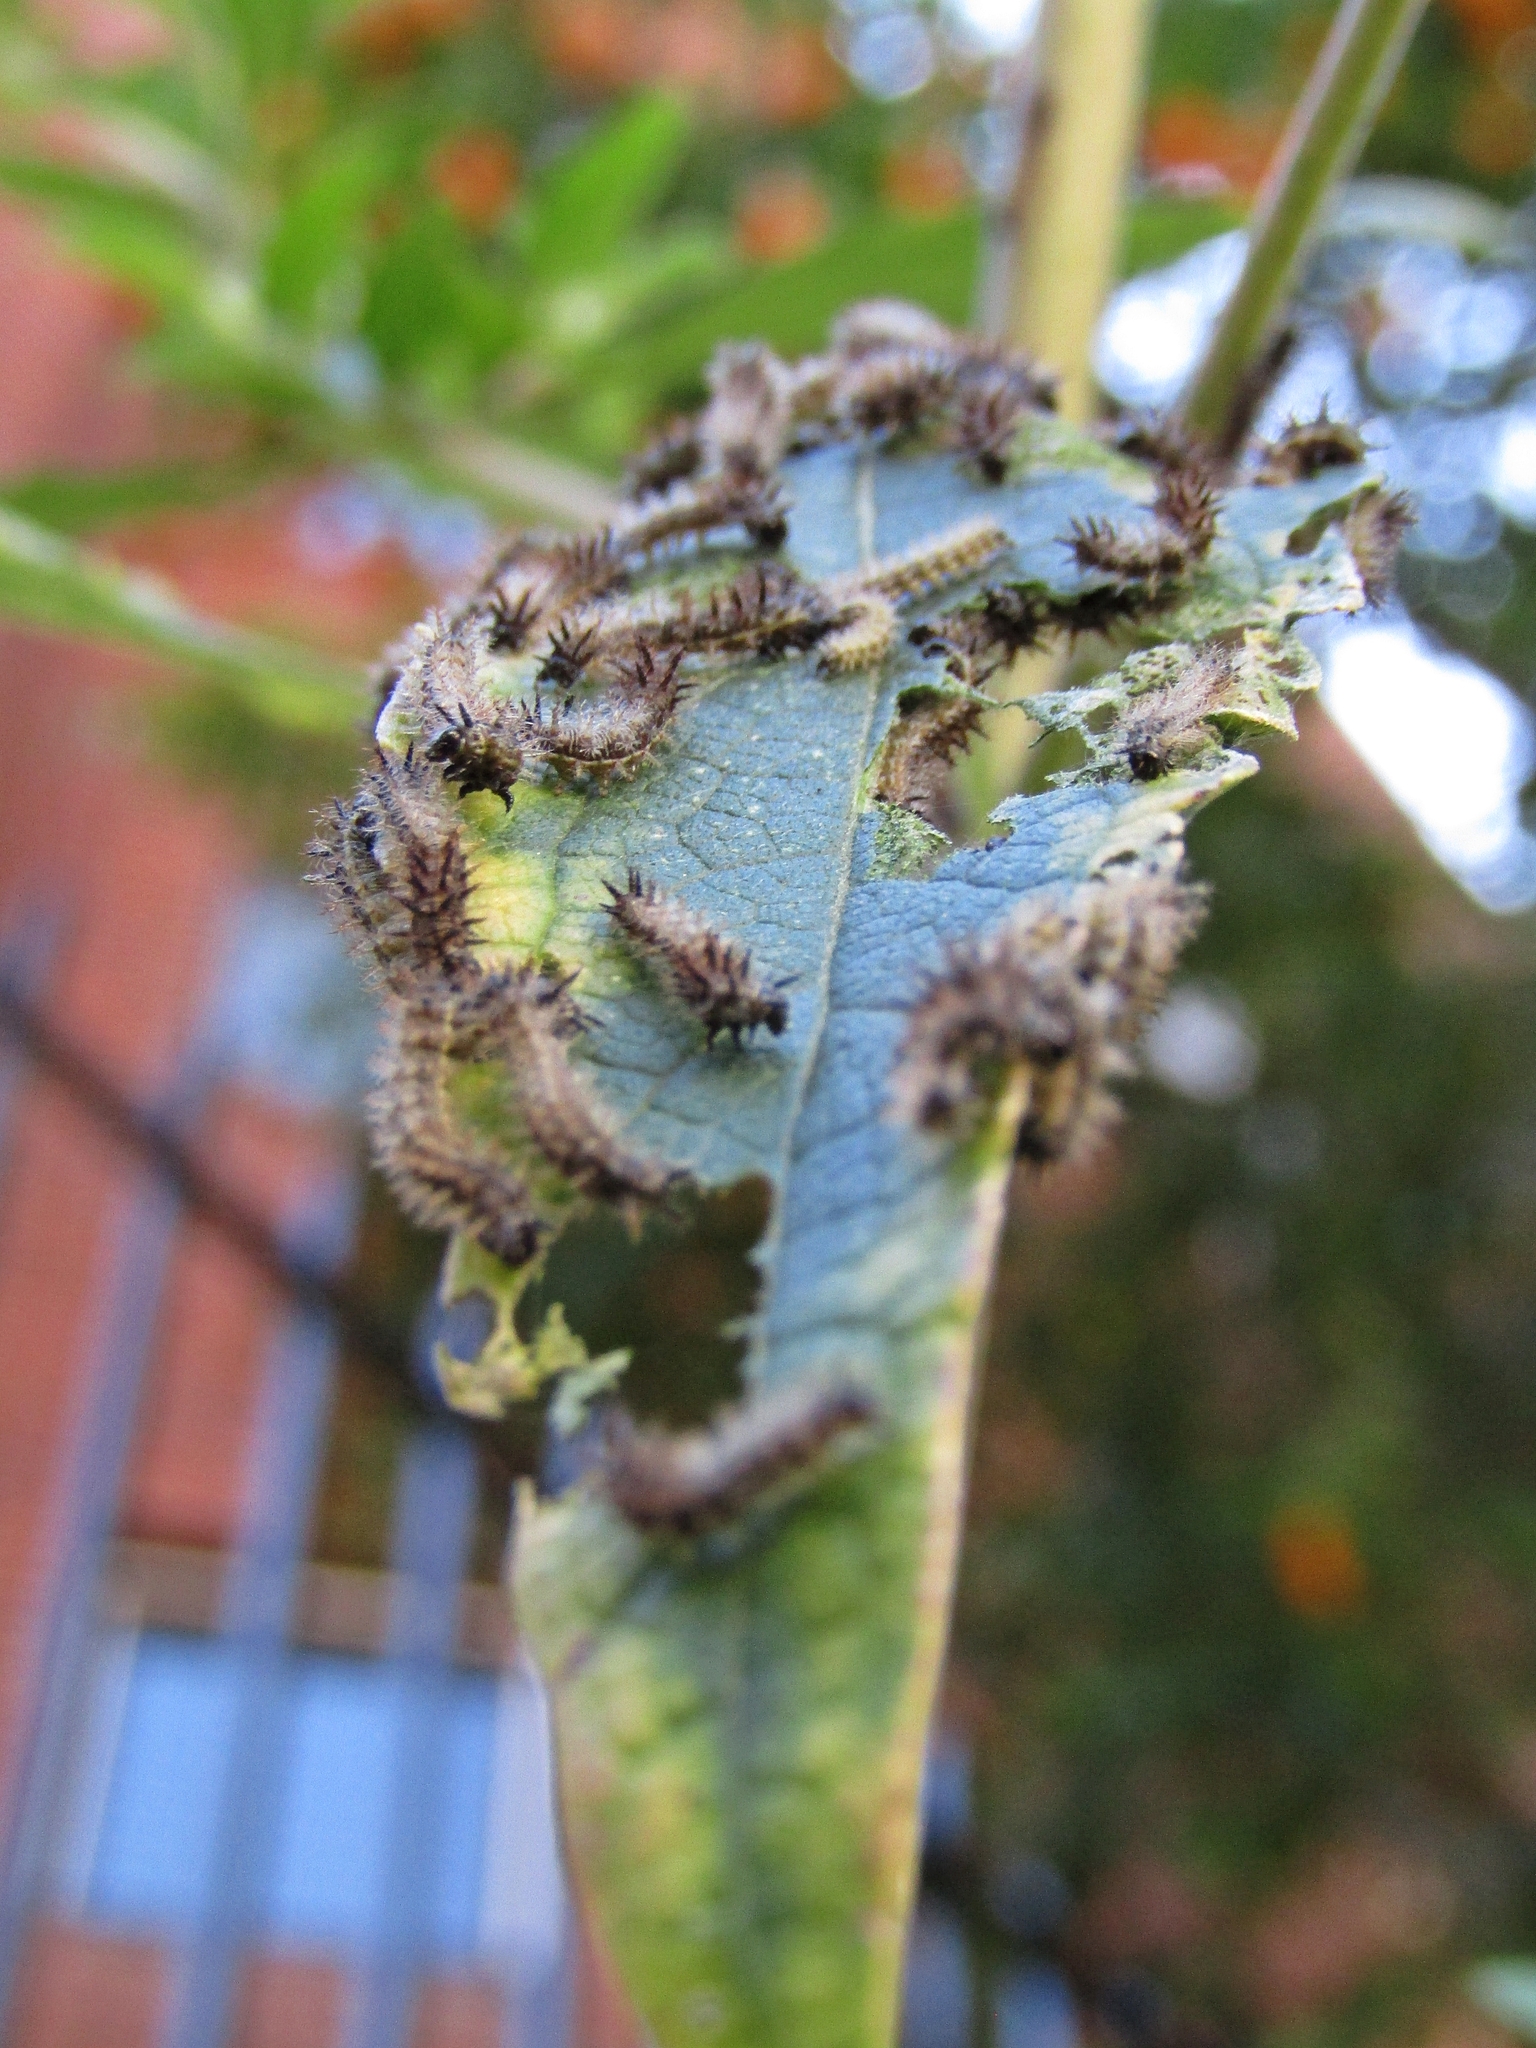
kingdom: Animalia
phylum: Arthropoda
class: Insecta
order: Lepidoptera
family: Nymphalidae
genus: Actinote
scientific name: Actinote pellenea
